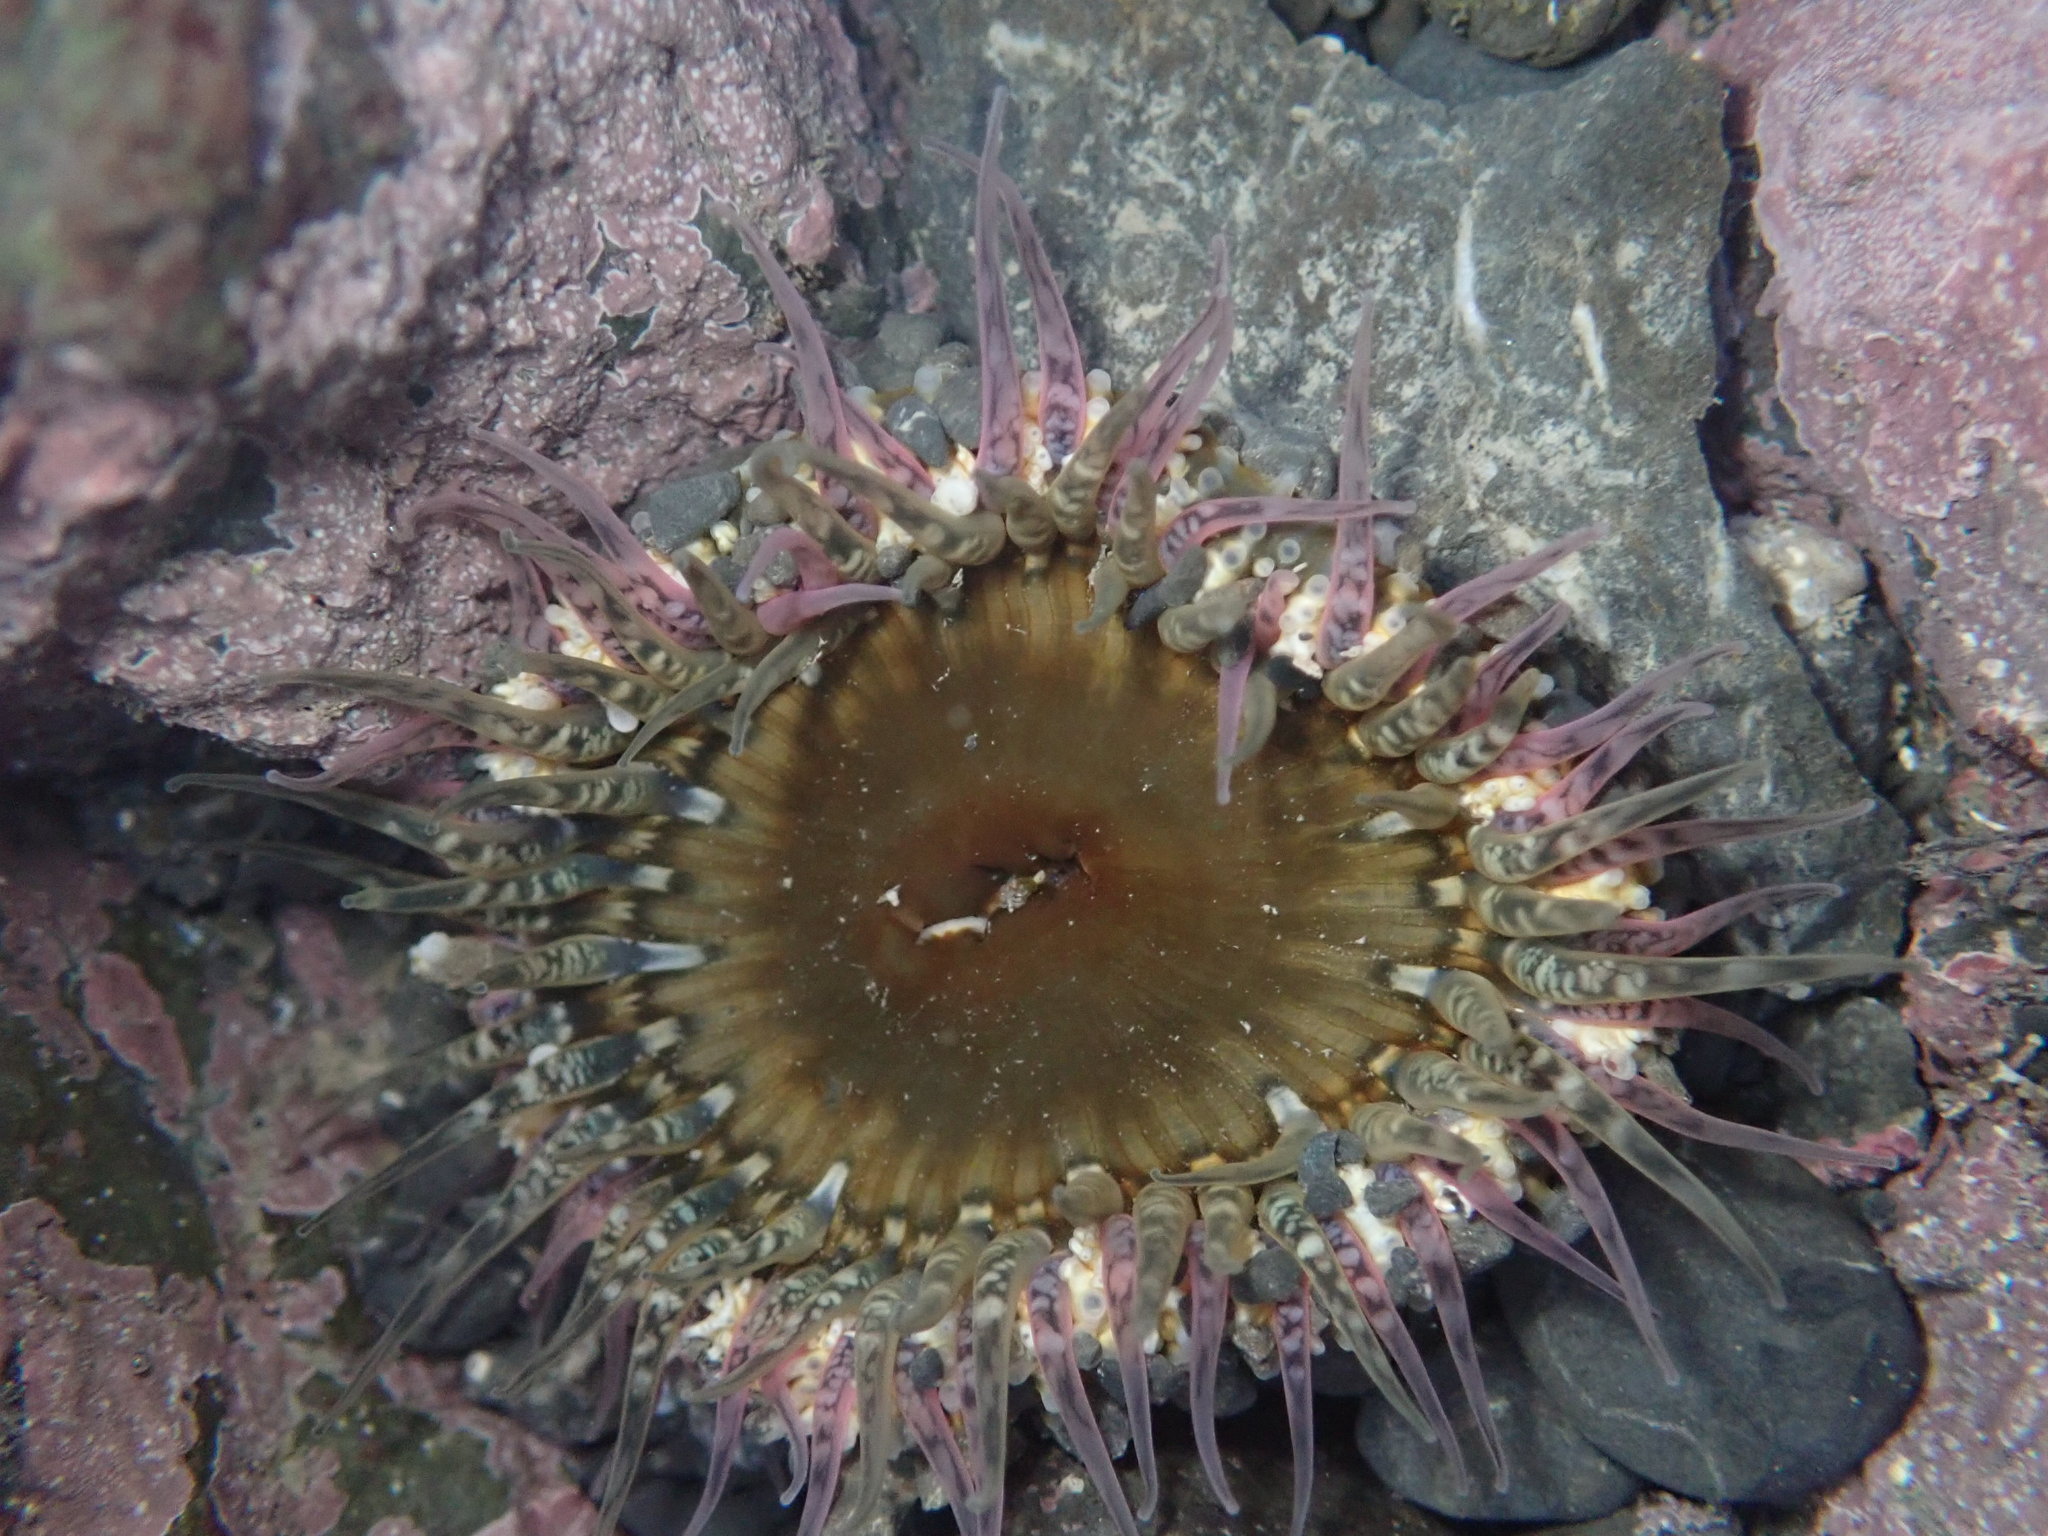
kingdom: Animalia
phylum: Cnidaria
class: Anthozoa
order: Actiniaria
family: Actiniidae
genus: Oulactis
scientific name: Oulactis muscosa
